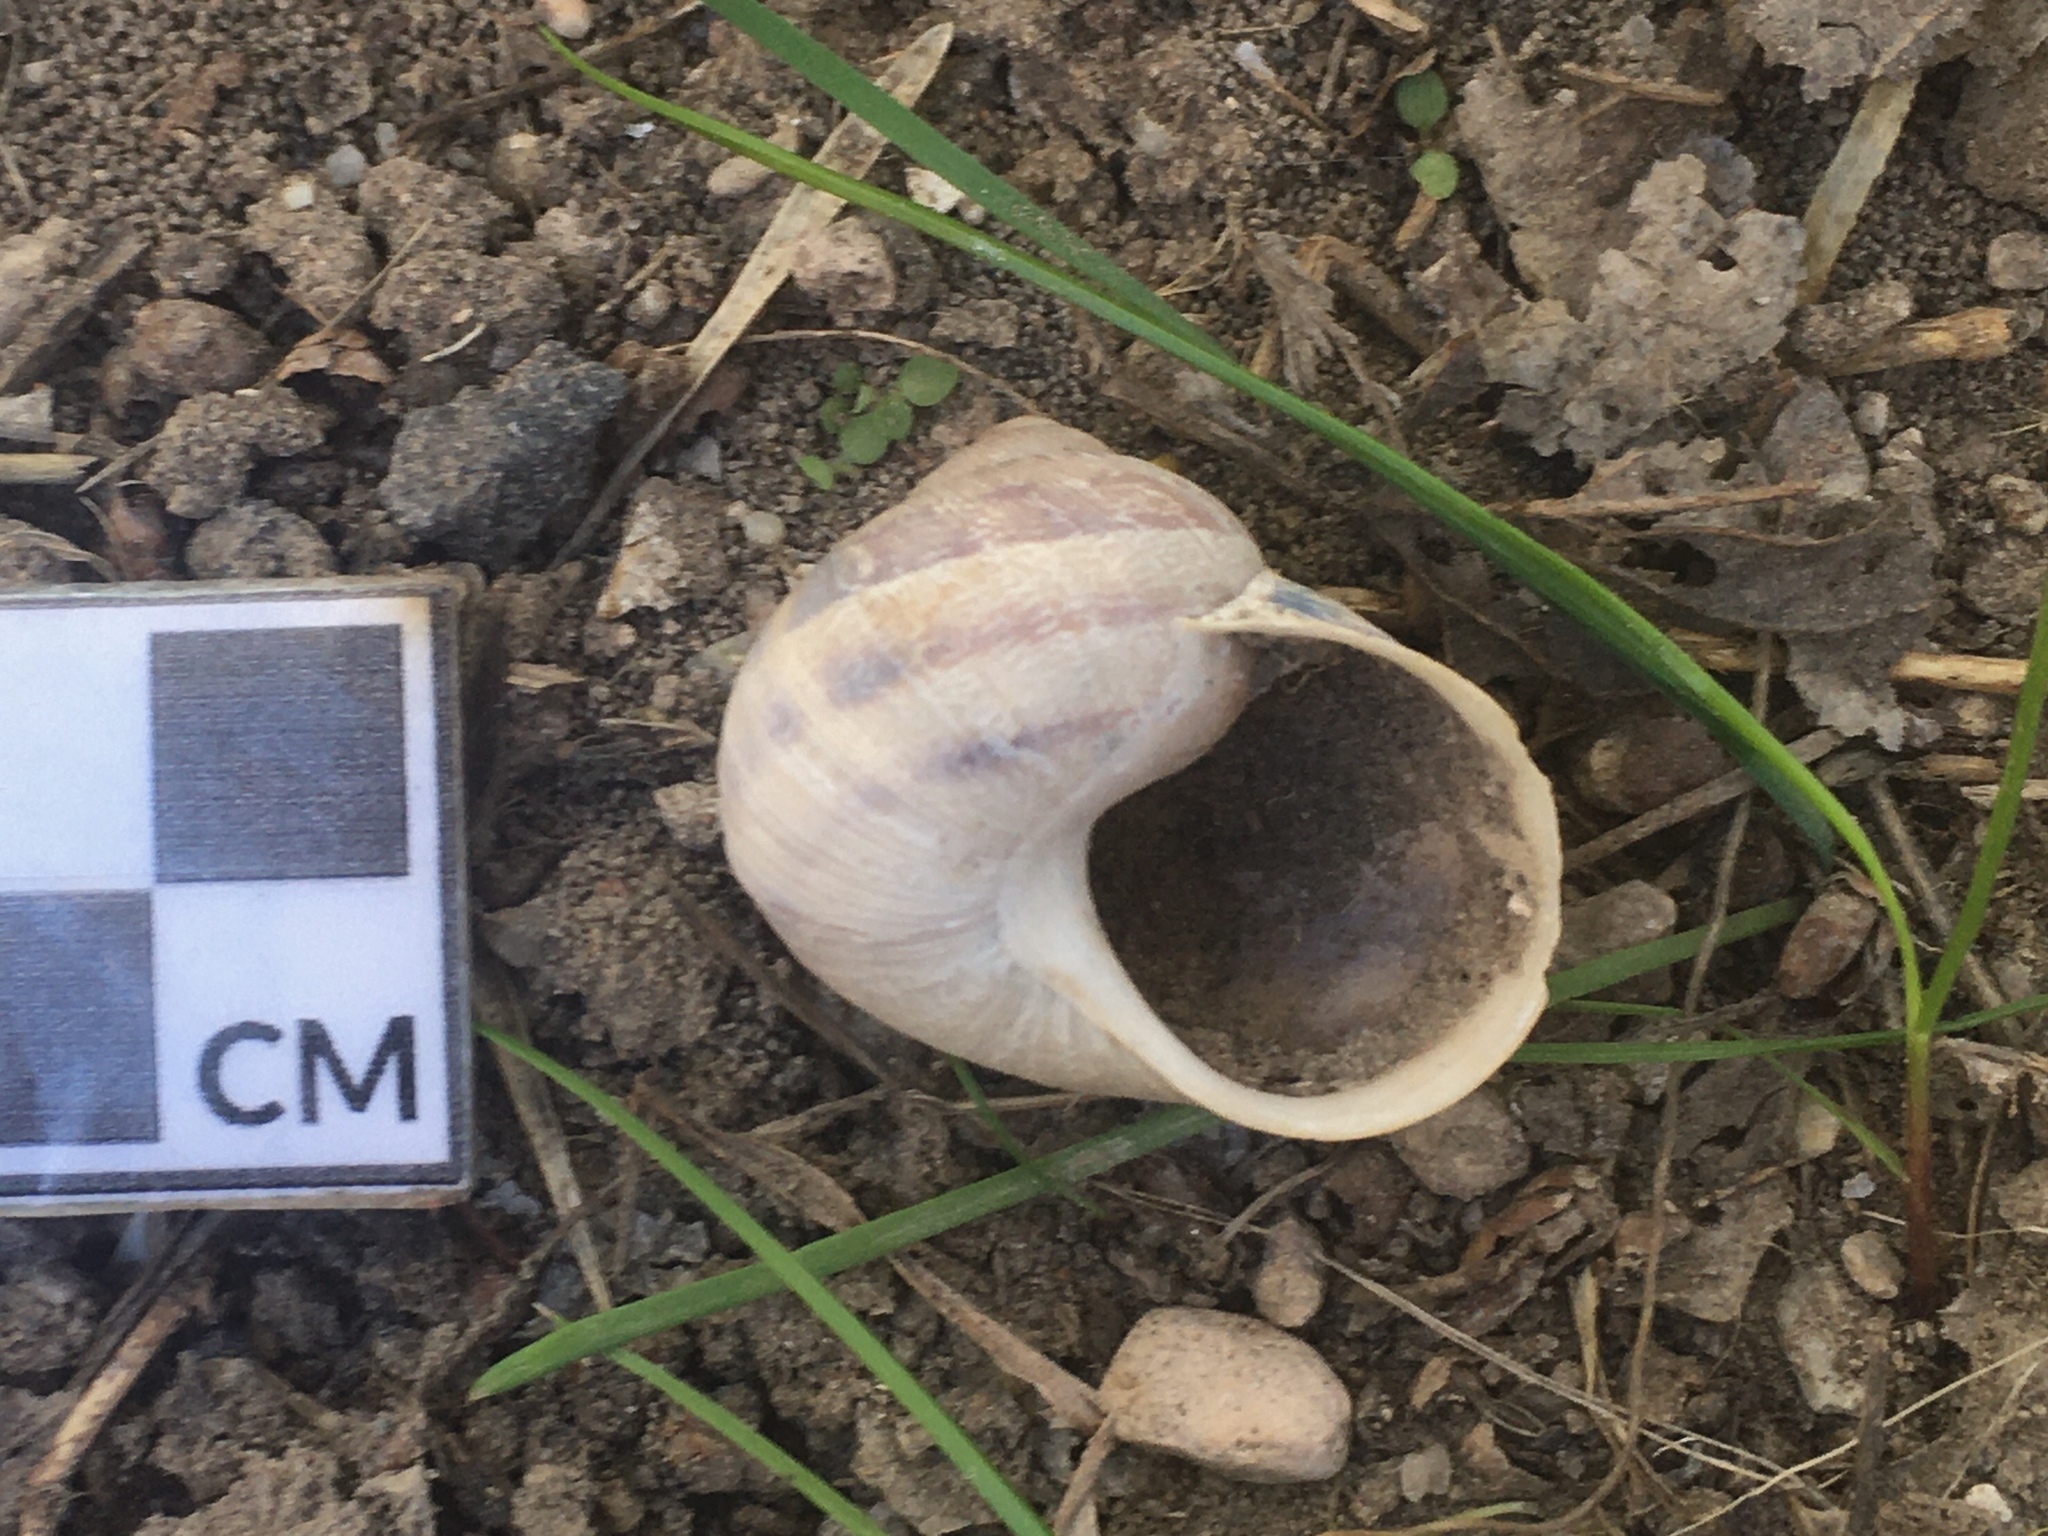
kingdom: Animalia
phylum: Mollusca
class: Gastropoda
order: Stylommatophora
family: Helicidae
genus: Cornu
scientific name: Cornu aspersum
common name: Brown garden snail
